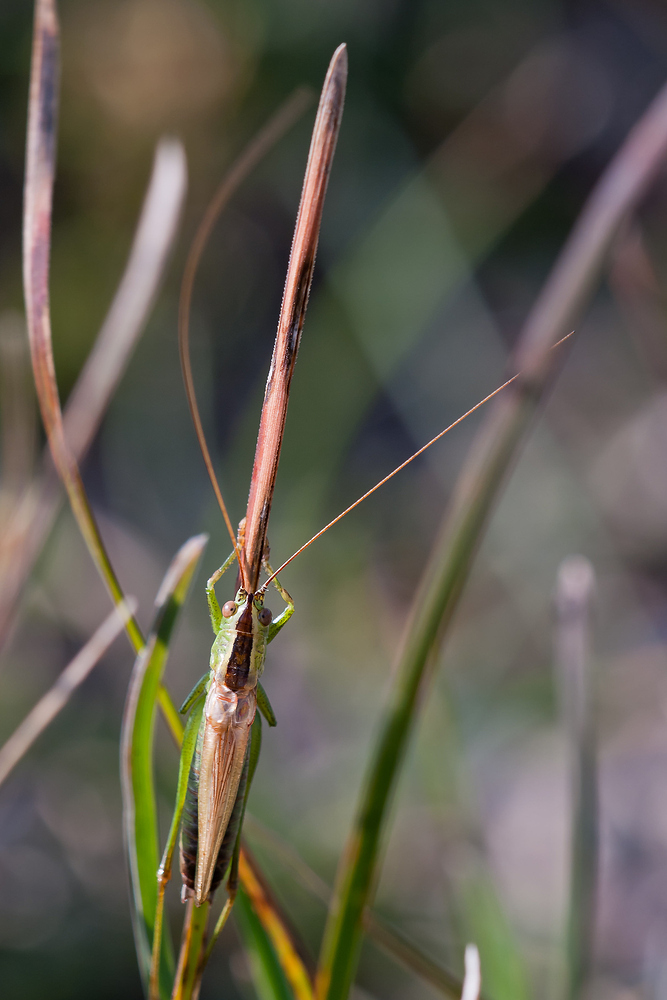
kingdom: Animalia
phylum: Arthropoda
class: Insecta
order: Orthoptera
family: Tettigoniidae
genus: Conocephalus
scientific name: Conocephalus fuscus
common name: Long-winged conehead
